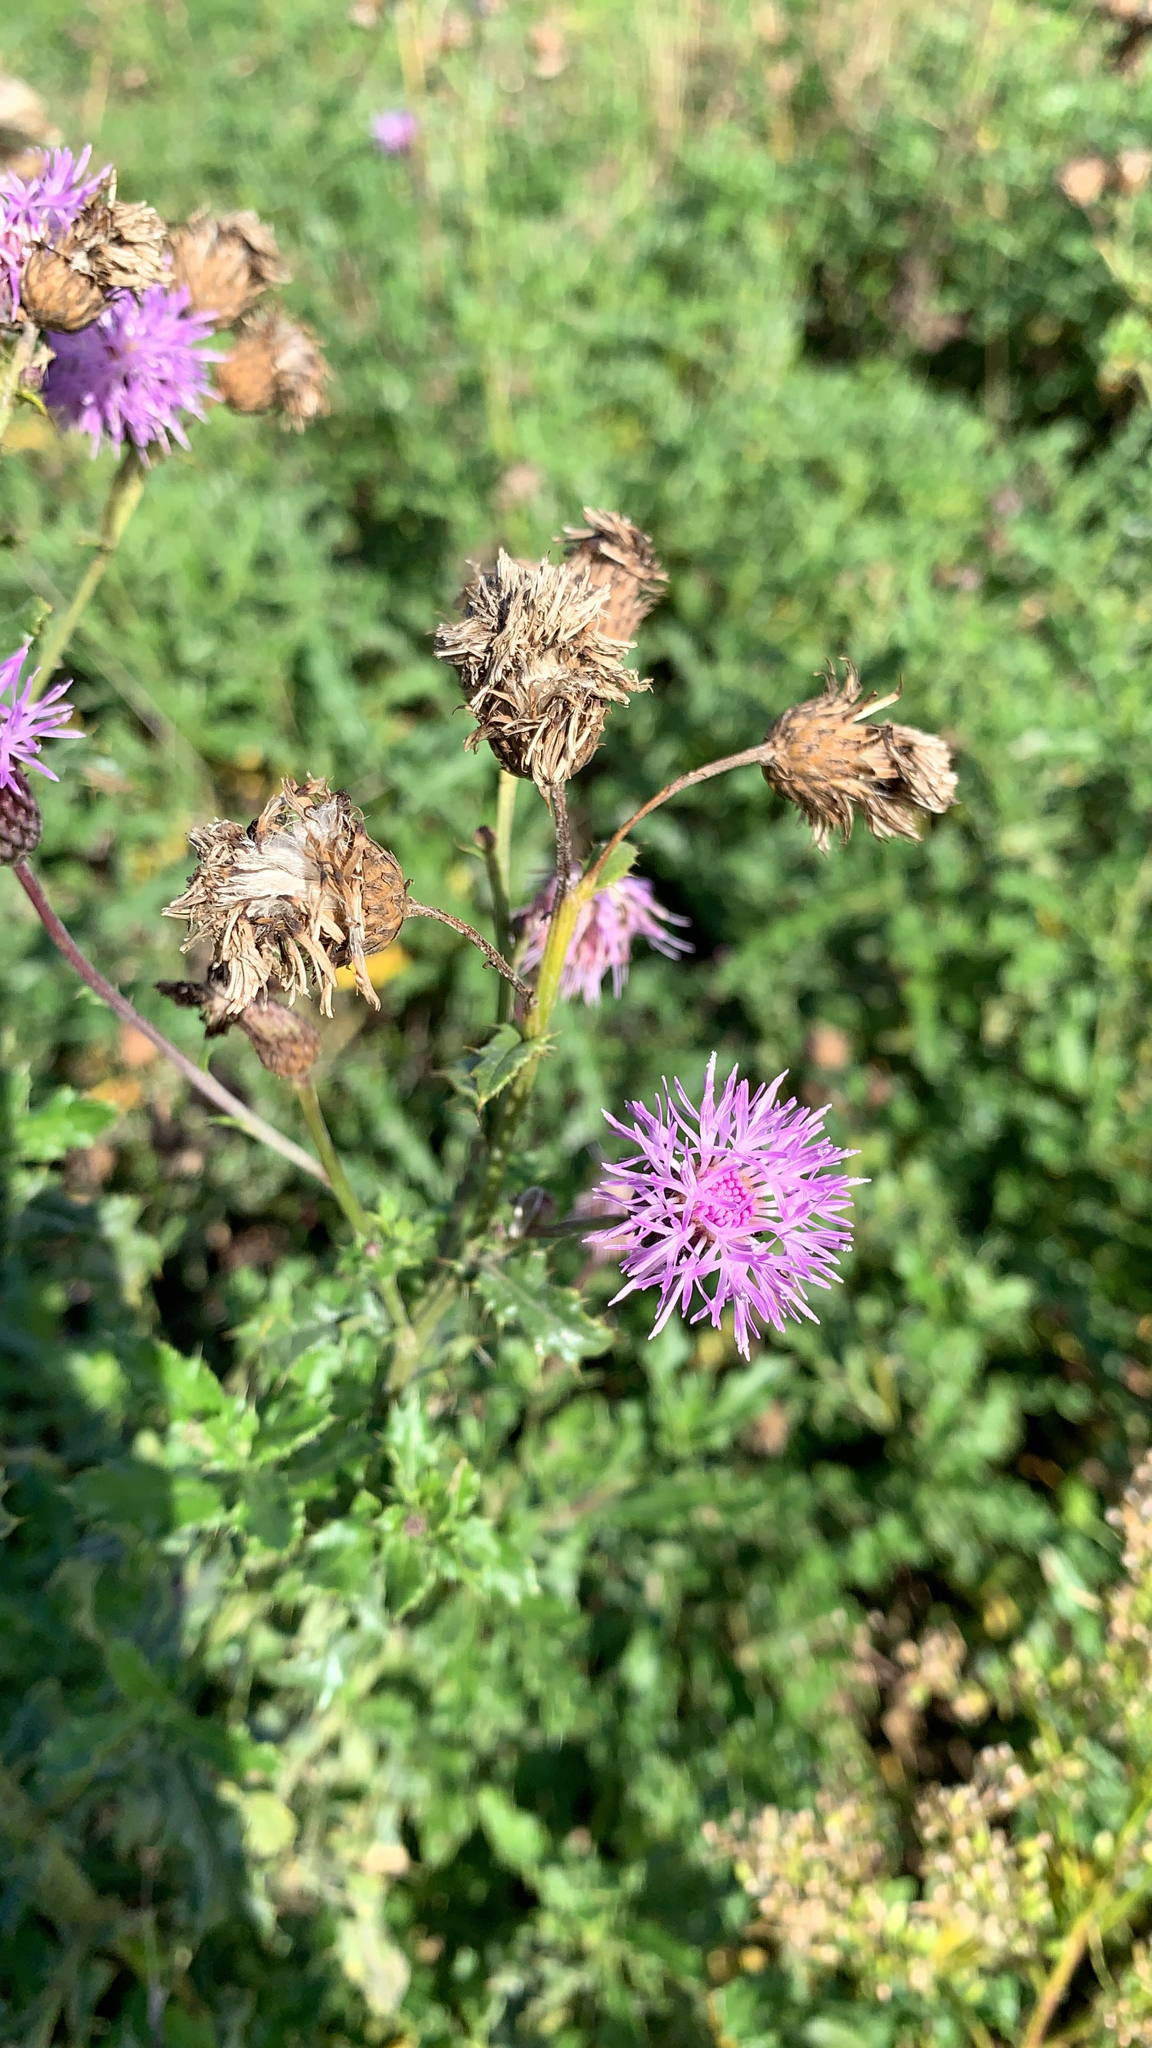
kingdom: Plantae
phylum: Tracheophyta
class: Magnoliopsida
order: Asterales
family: Asteraceae
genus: Cirsium
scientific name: Cirsium arvense
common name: Creeping thistle
